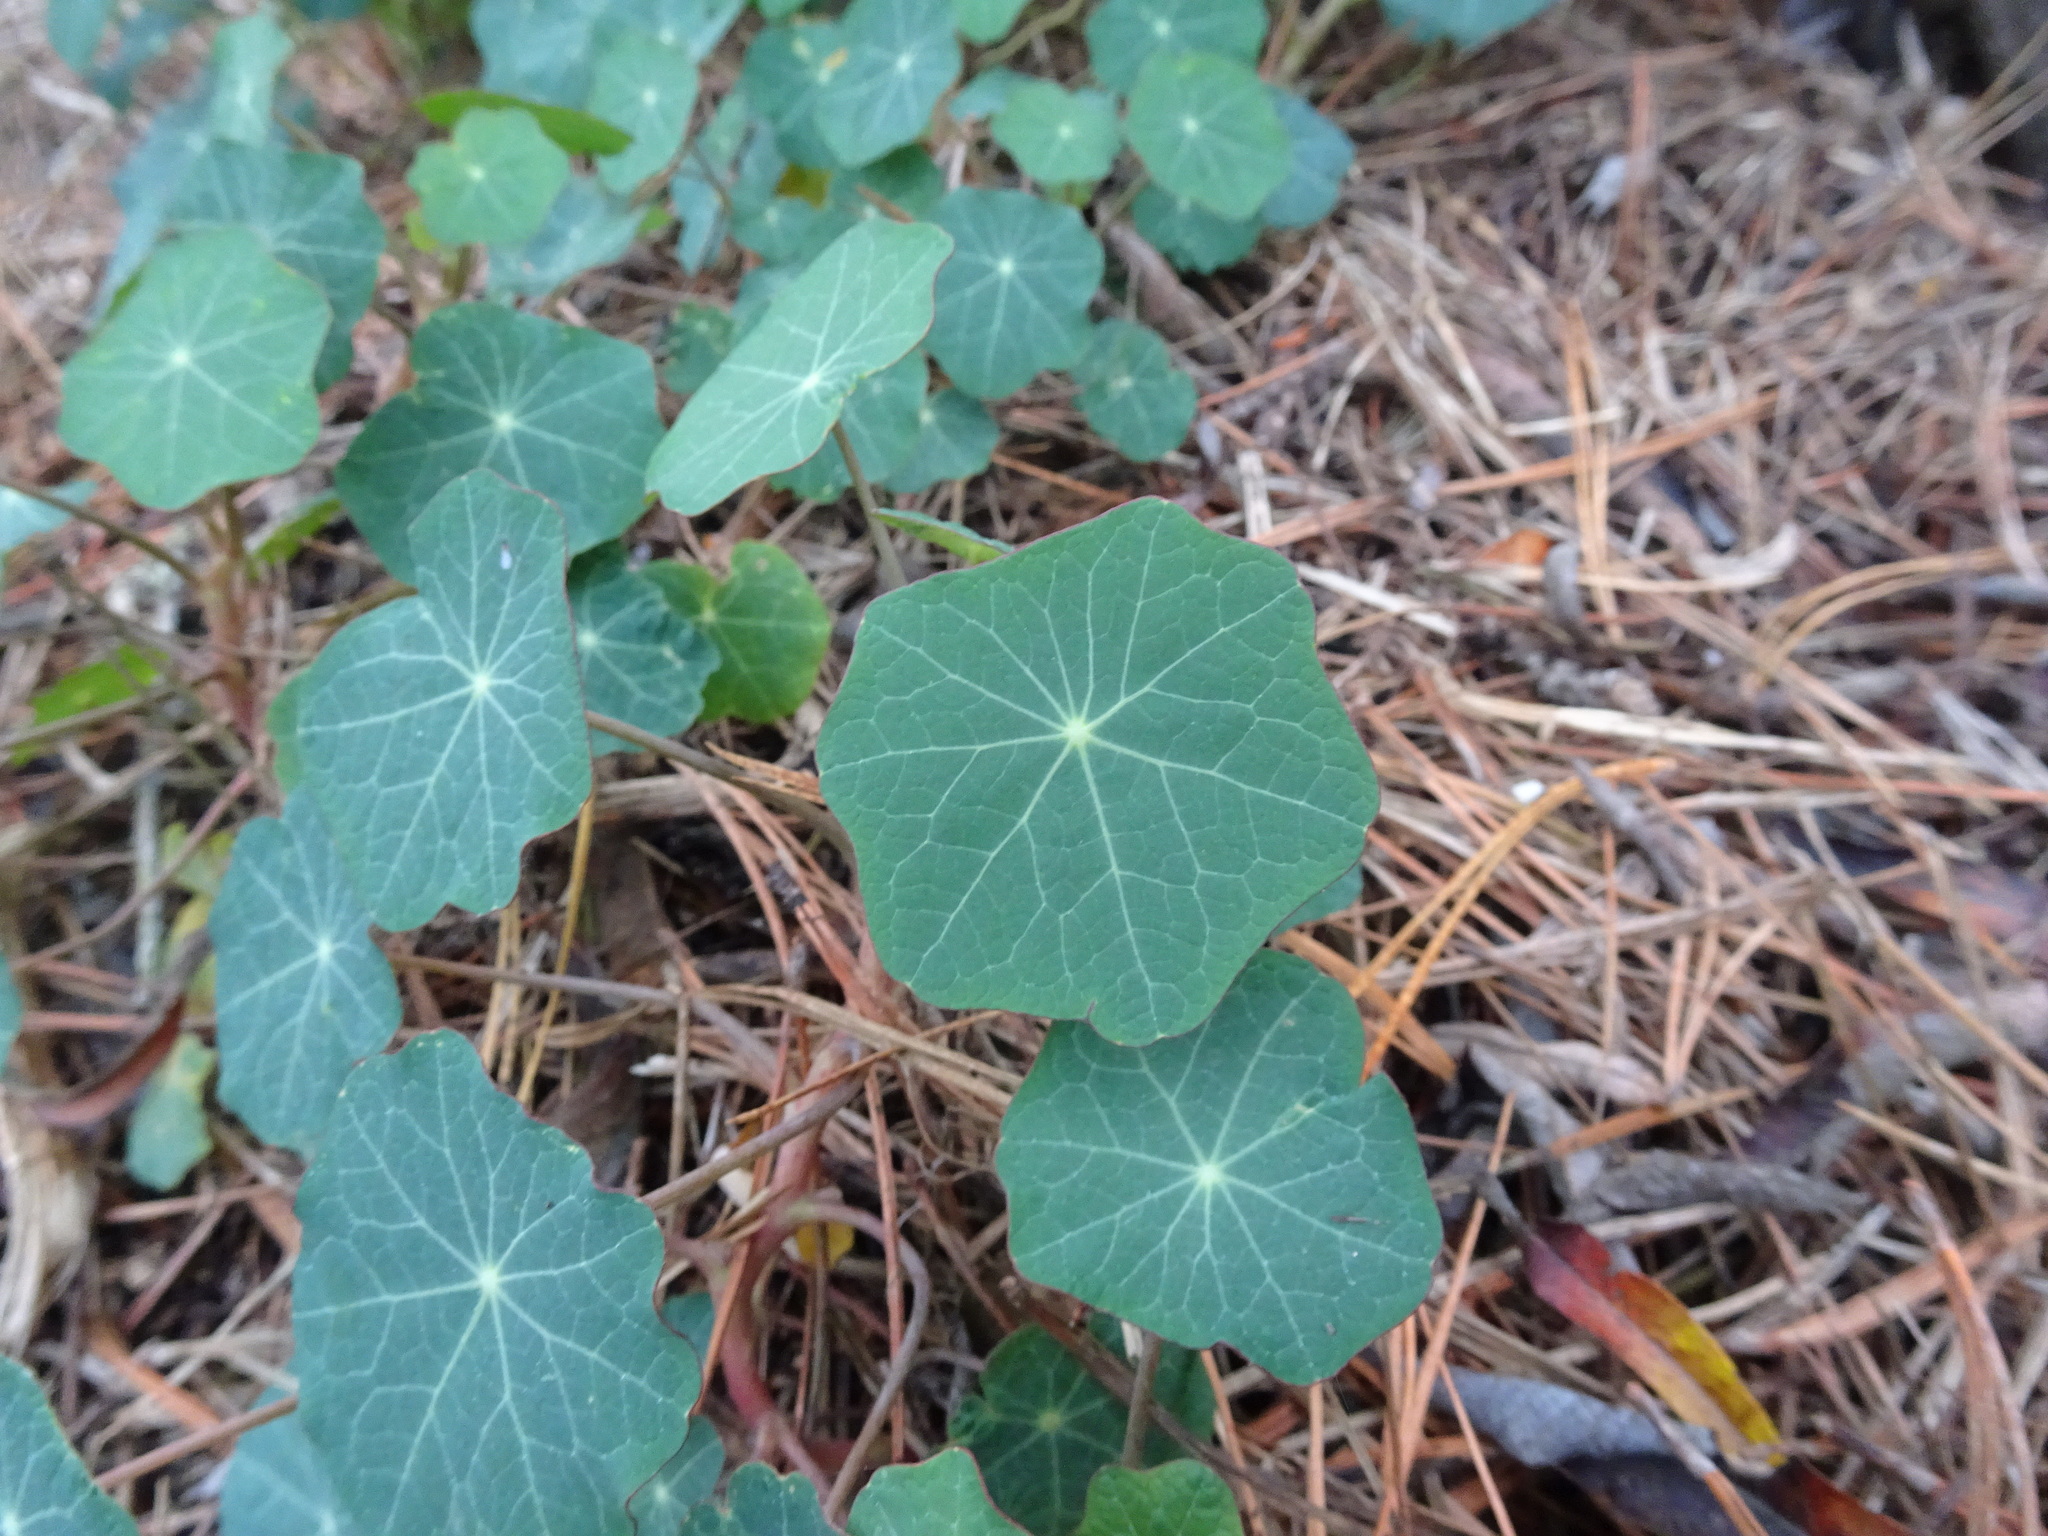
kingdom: Plantae
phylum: Tracheophyta
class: Magnoliopsida
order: Brassicales
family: Tropaeolaceae
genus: Tropaeolum
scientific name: Tropaeolum majus
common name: Nasturtium
